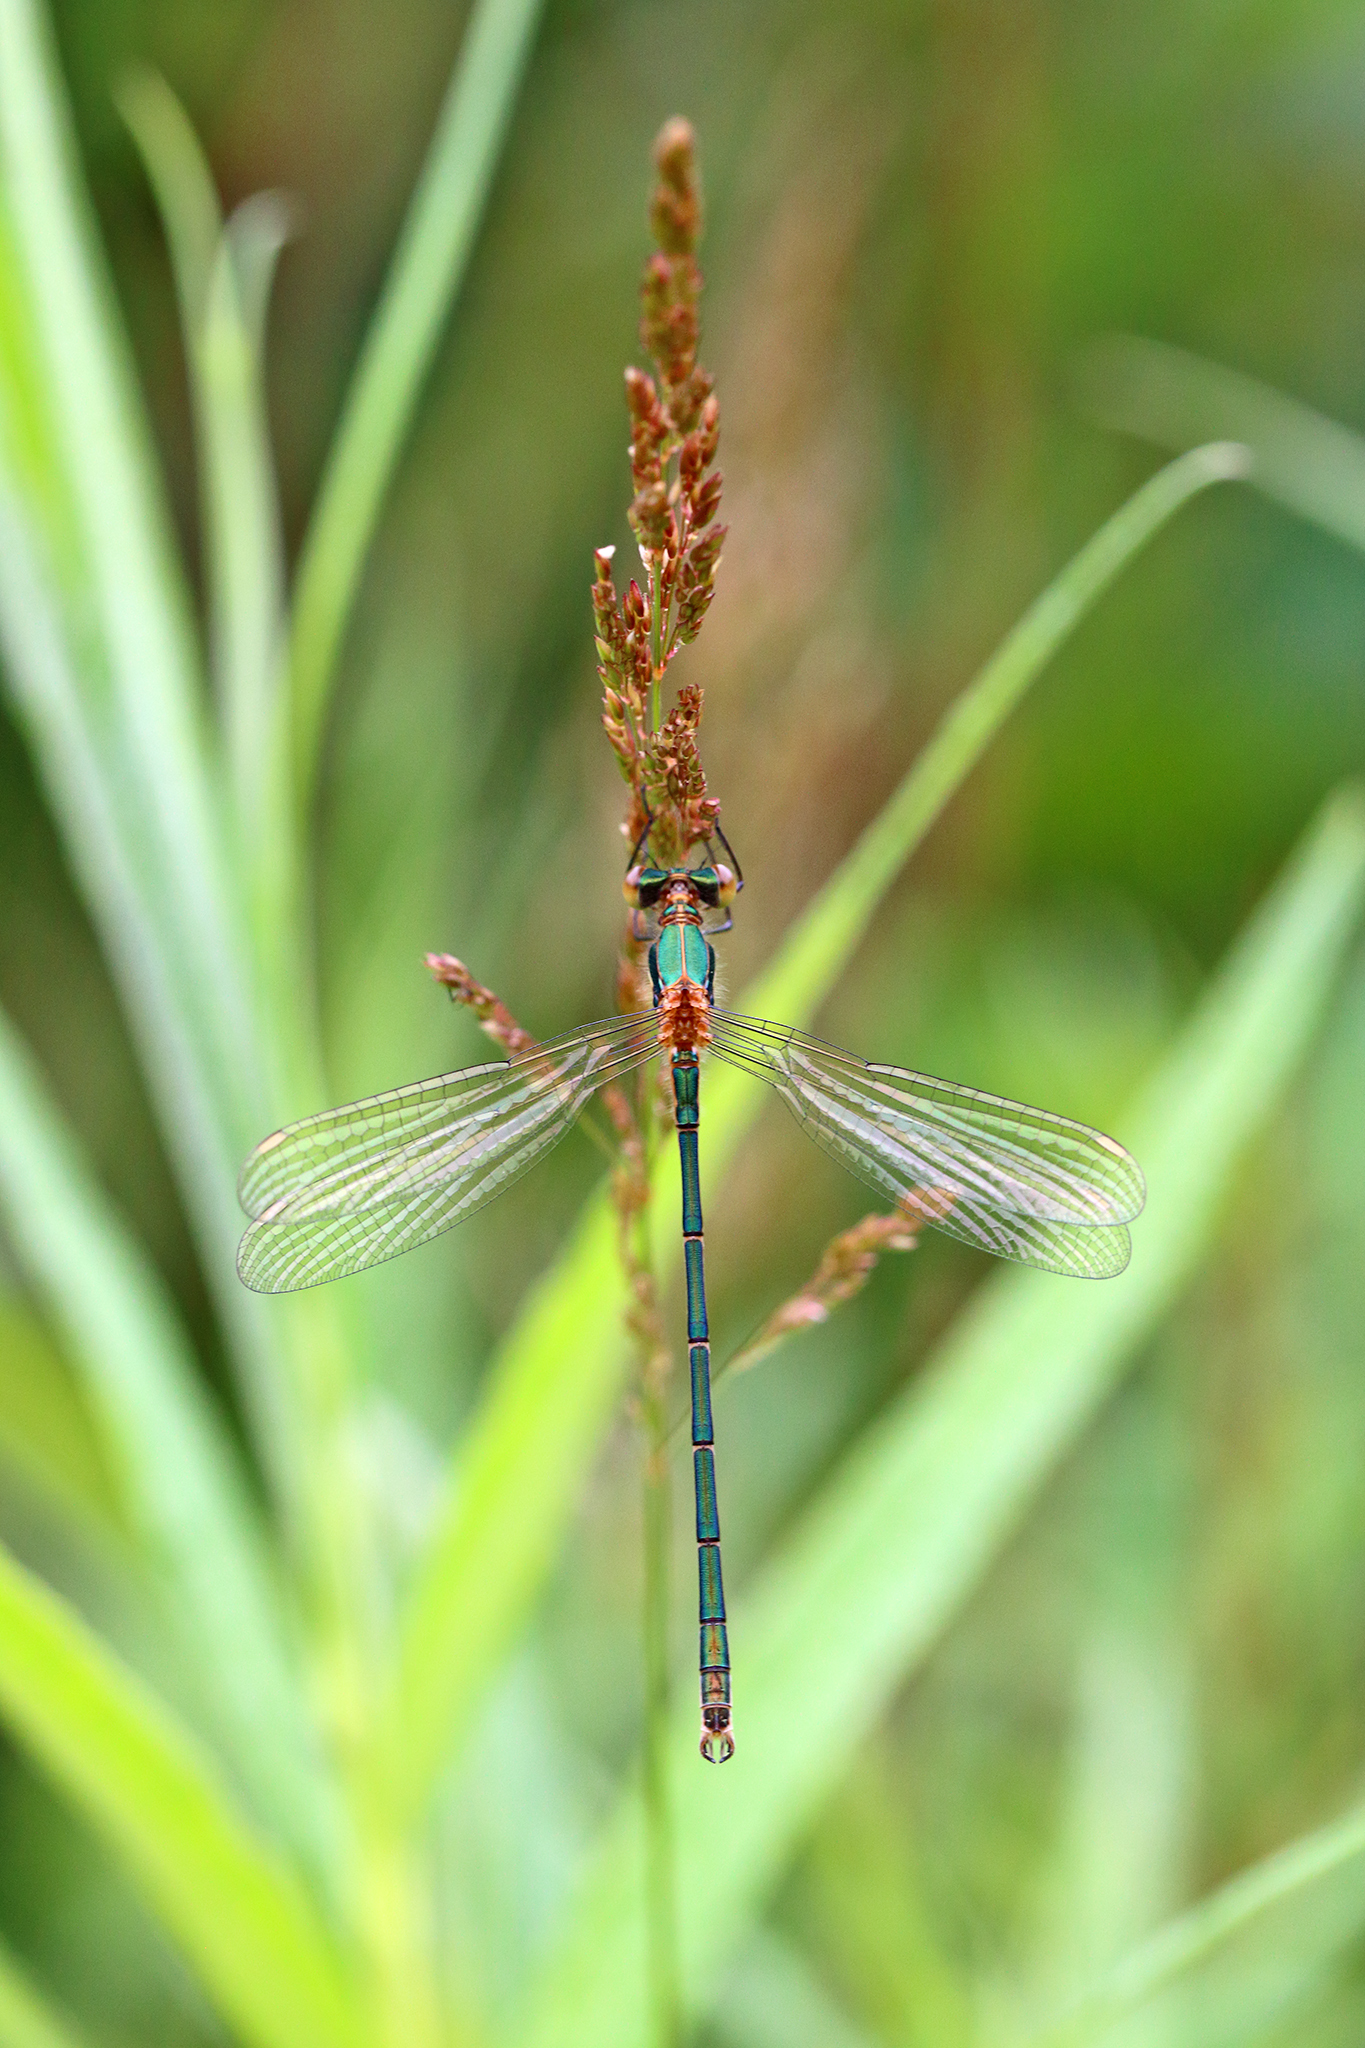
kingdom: Animalia
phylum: Arthropoda
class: Insecta
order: Odonata
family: Lestidae
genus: Lestes
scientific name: Lestes sponsa
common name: Common spreadwing
